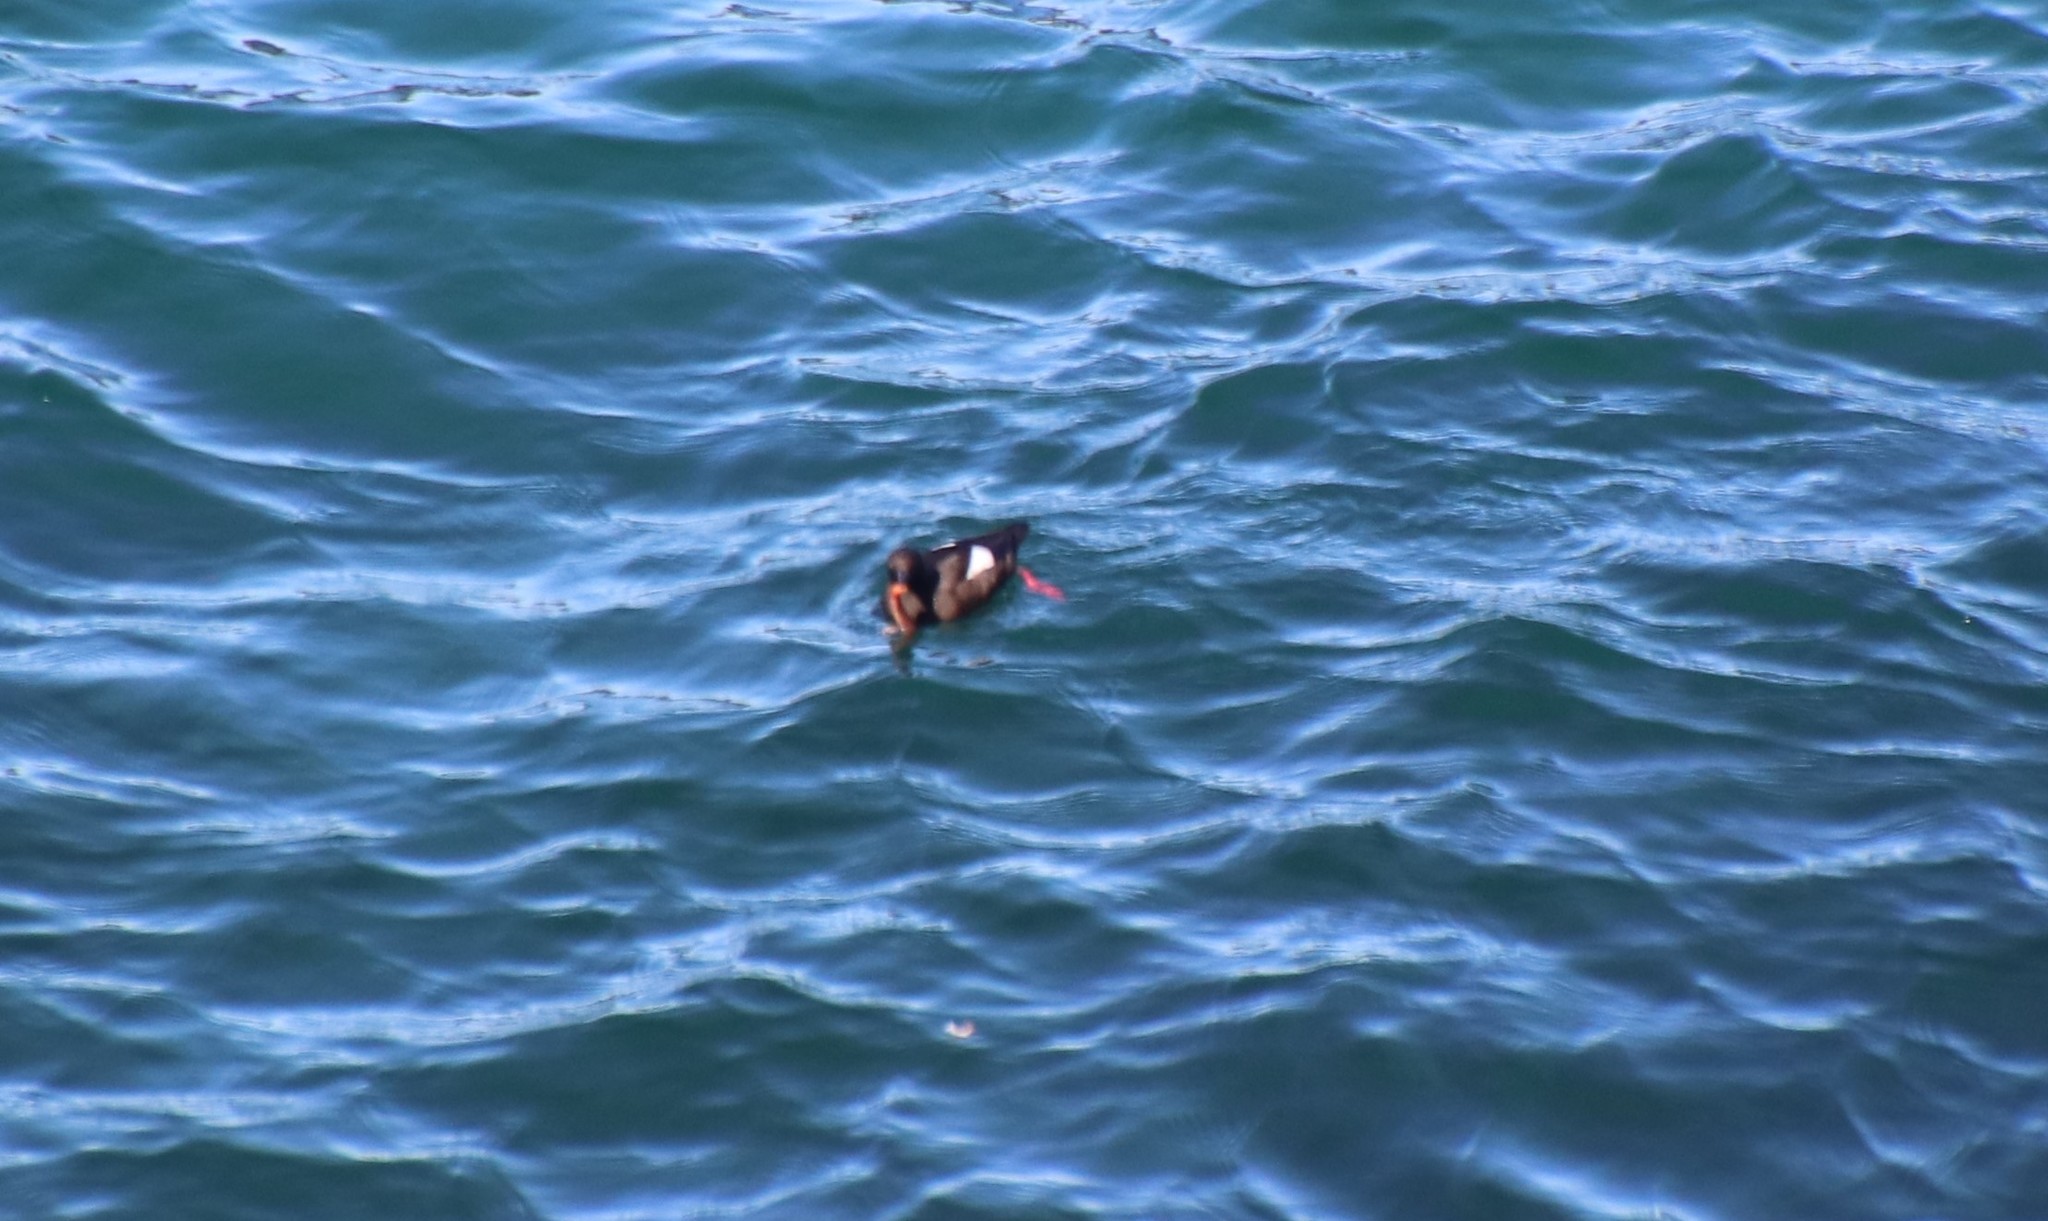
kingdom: Animalia
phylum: Chordata
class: Aves
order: Charadriiformes
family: Alcidae
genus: Cepphus
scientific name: Cepphus grylle
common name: Black guillemot
